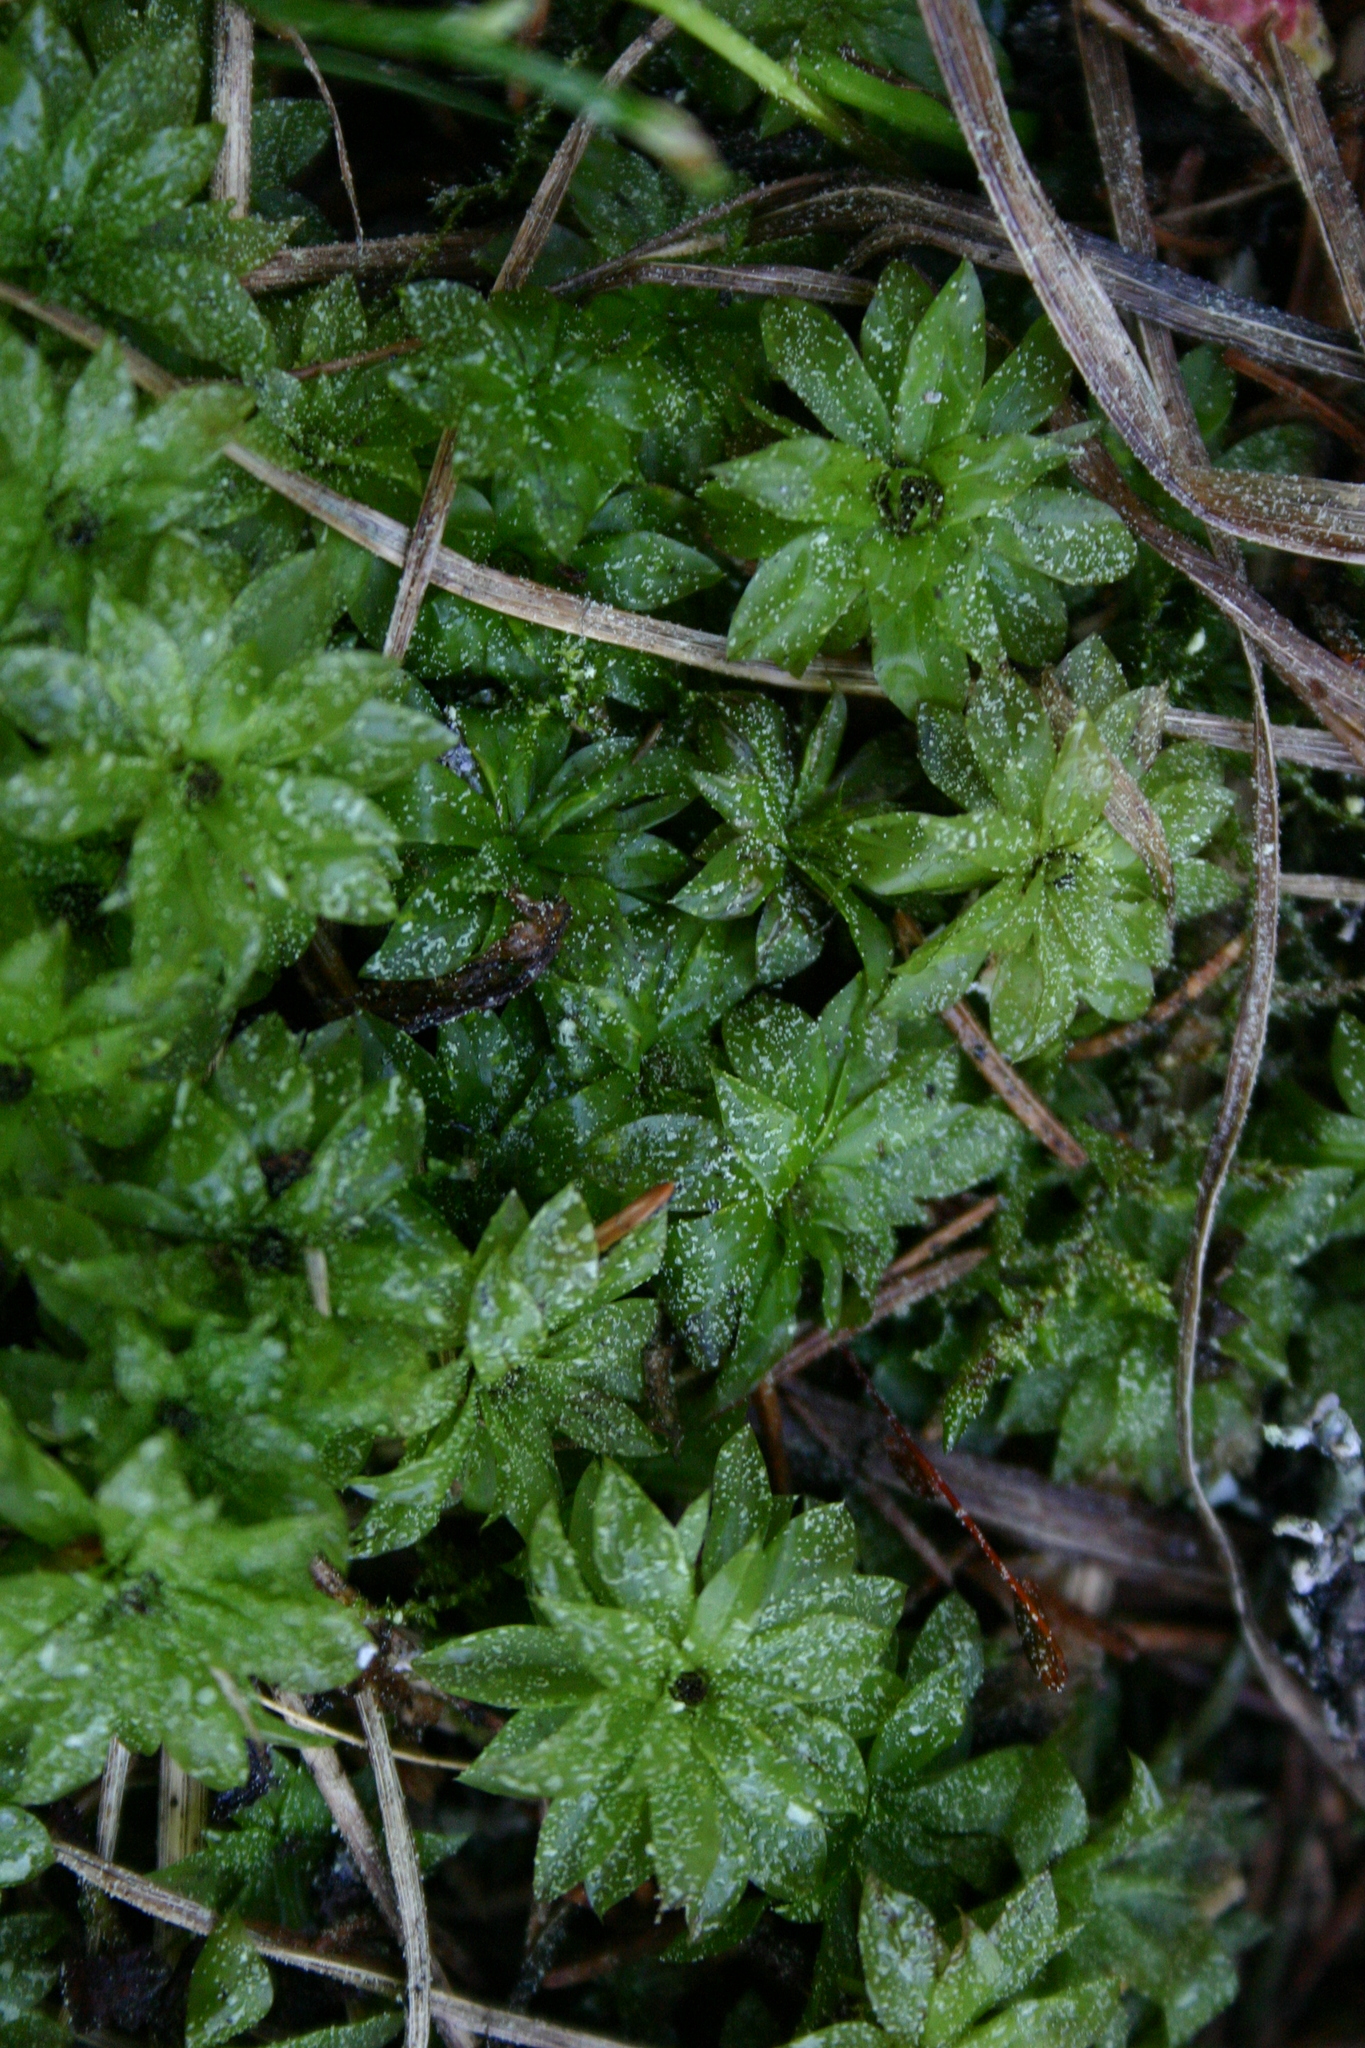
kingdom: Plantae
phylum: Bryophyta
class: Bryopsida
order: Bryales
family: Bryaceae
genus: Rhodobryum
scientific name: Rhodobryum roseum
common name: Rose-moss
